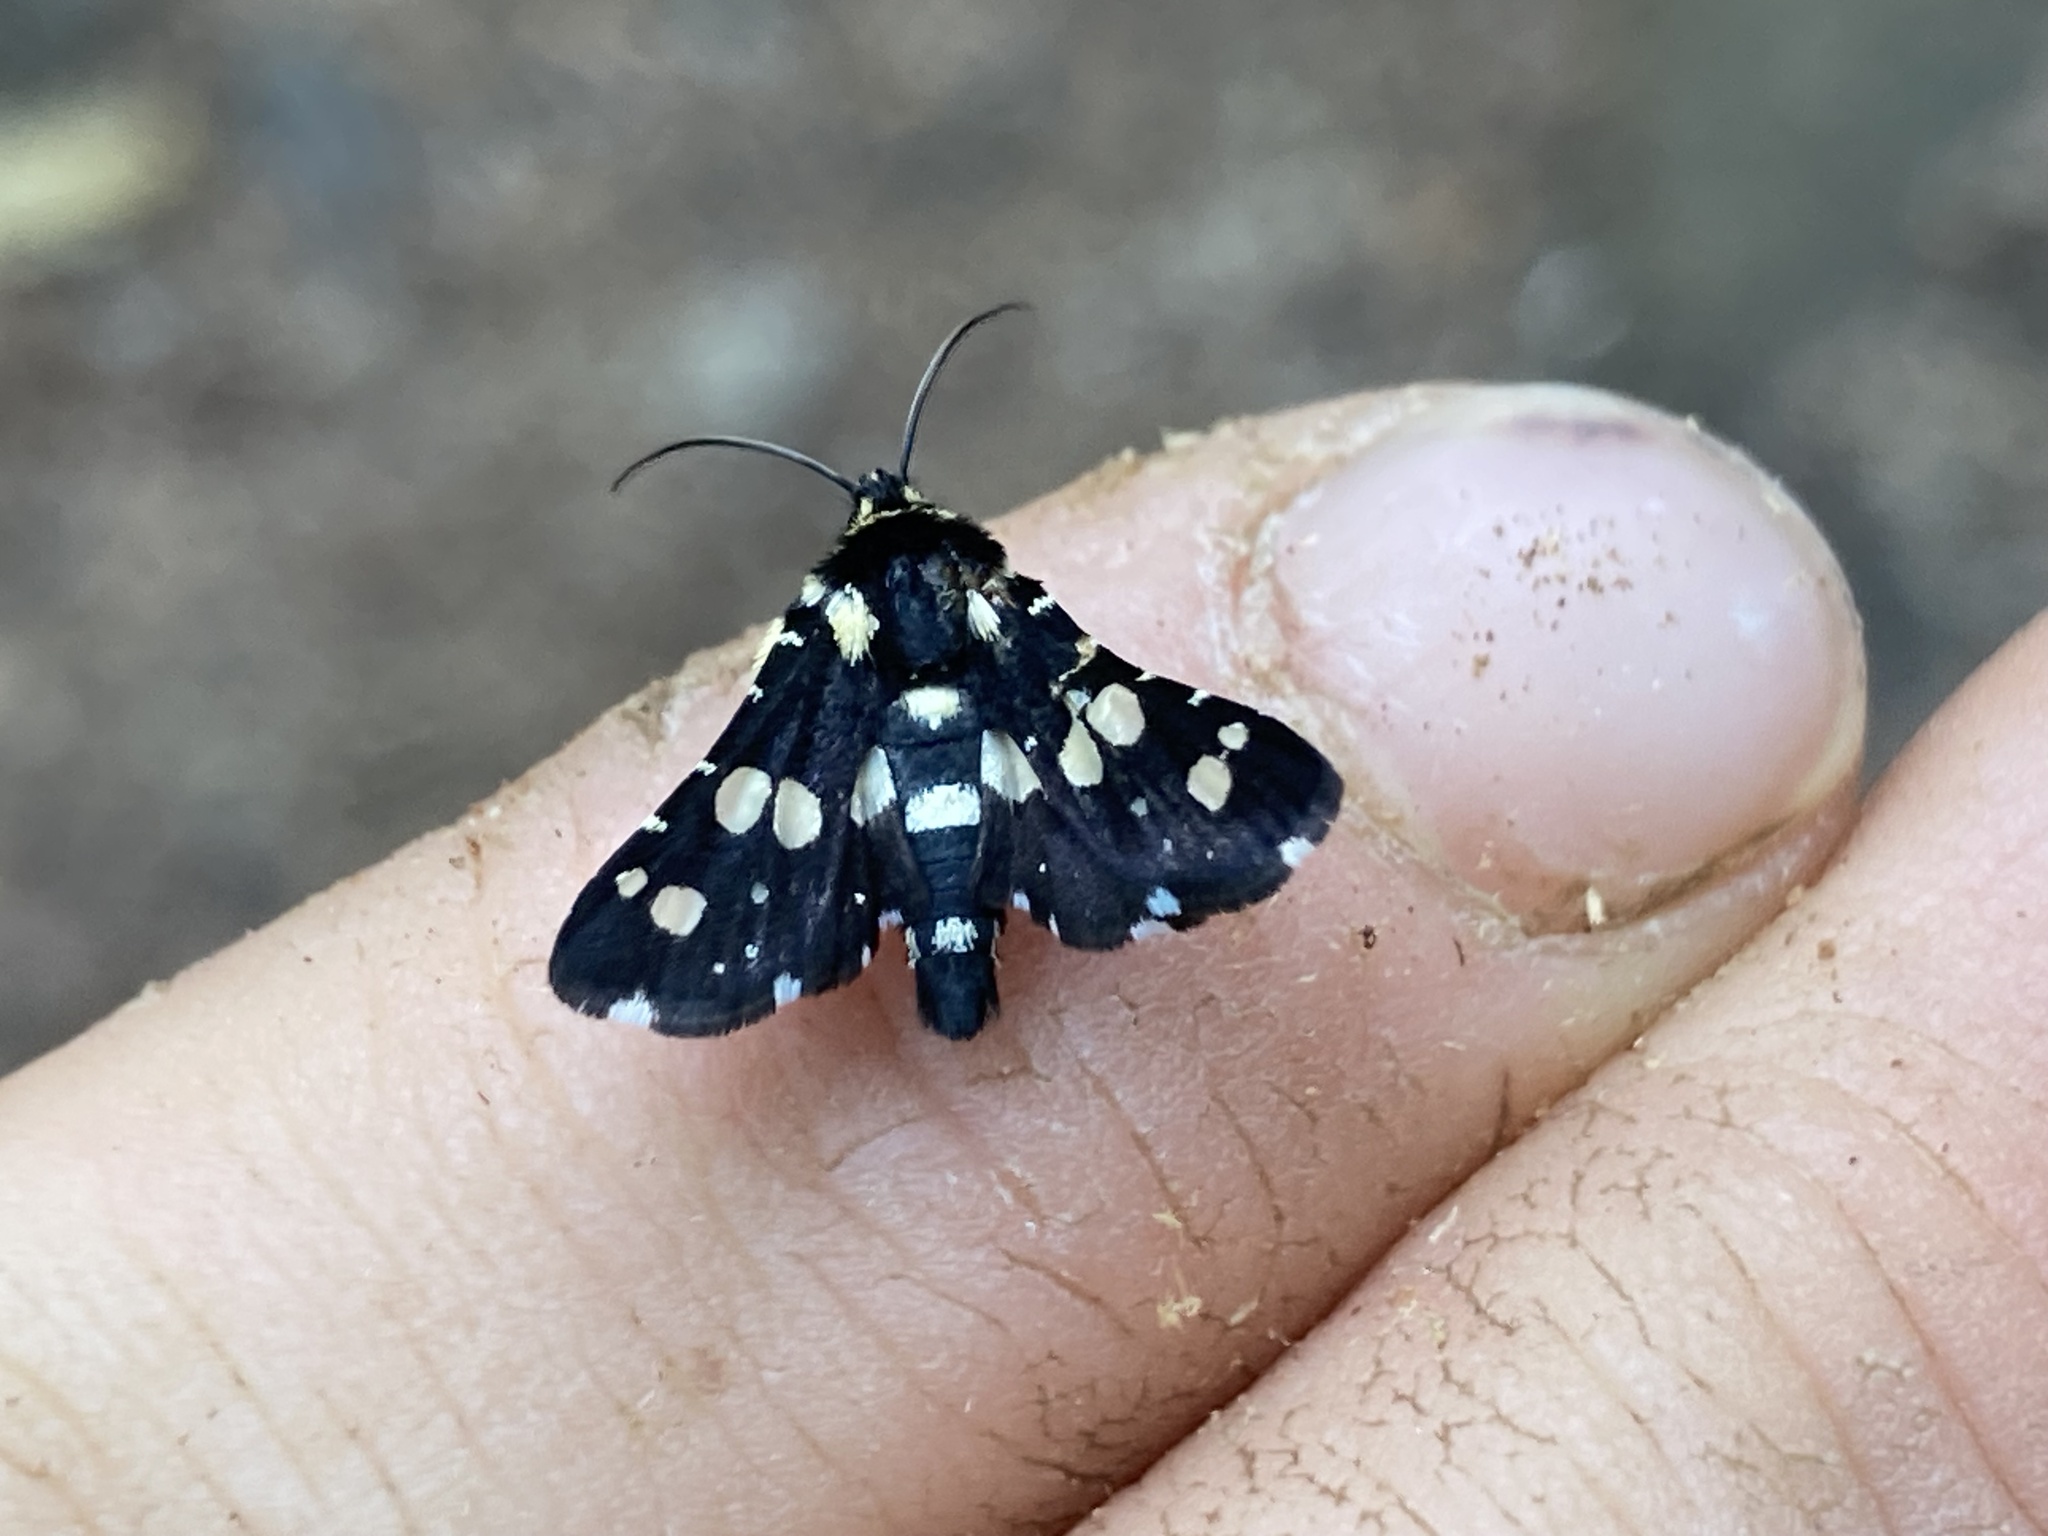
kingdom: Animalia
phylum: Arthropoda
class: Insecta
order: Lepidoptera
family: Thyrididae
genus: Pseudothyris
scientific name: Pseudothyris sepulchralis
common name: Mournful thyris moth
